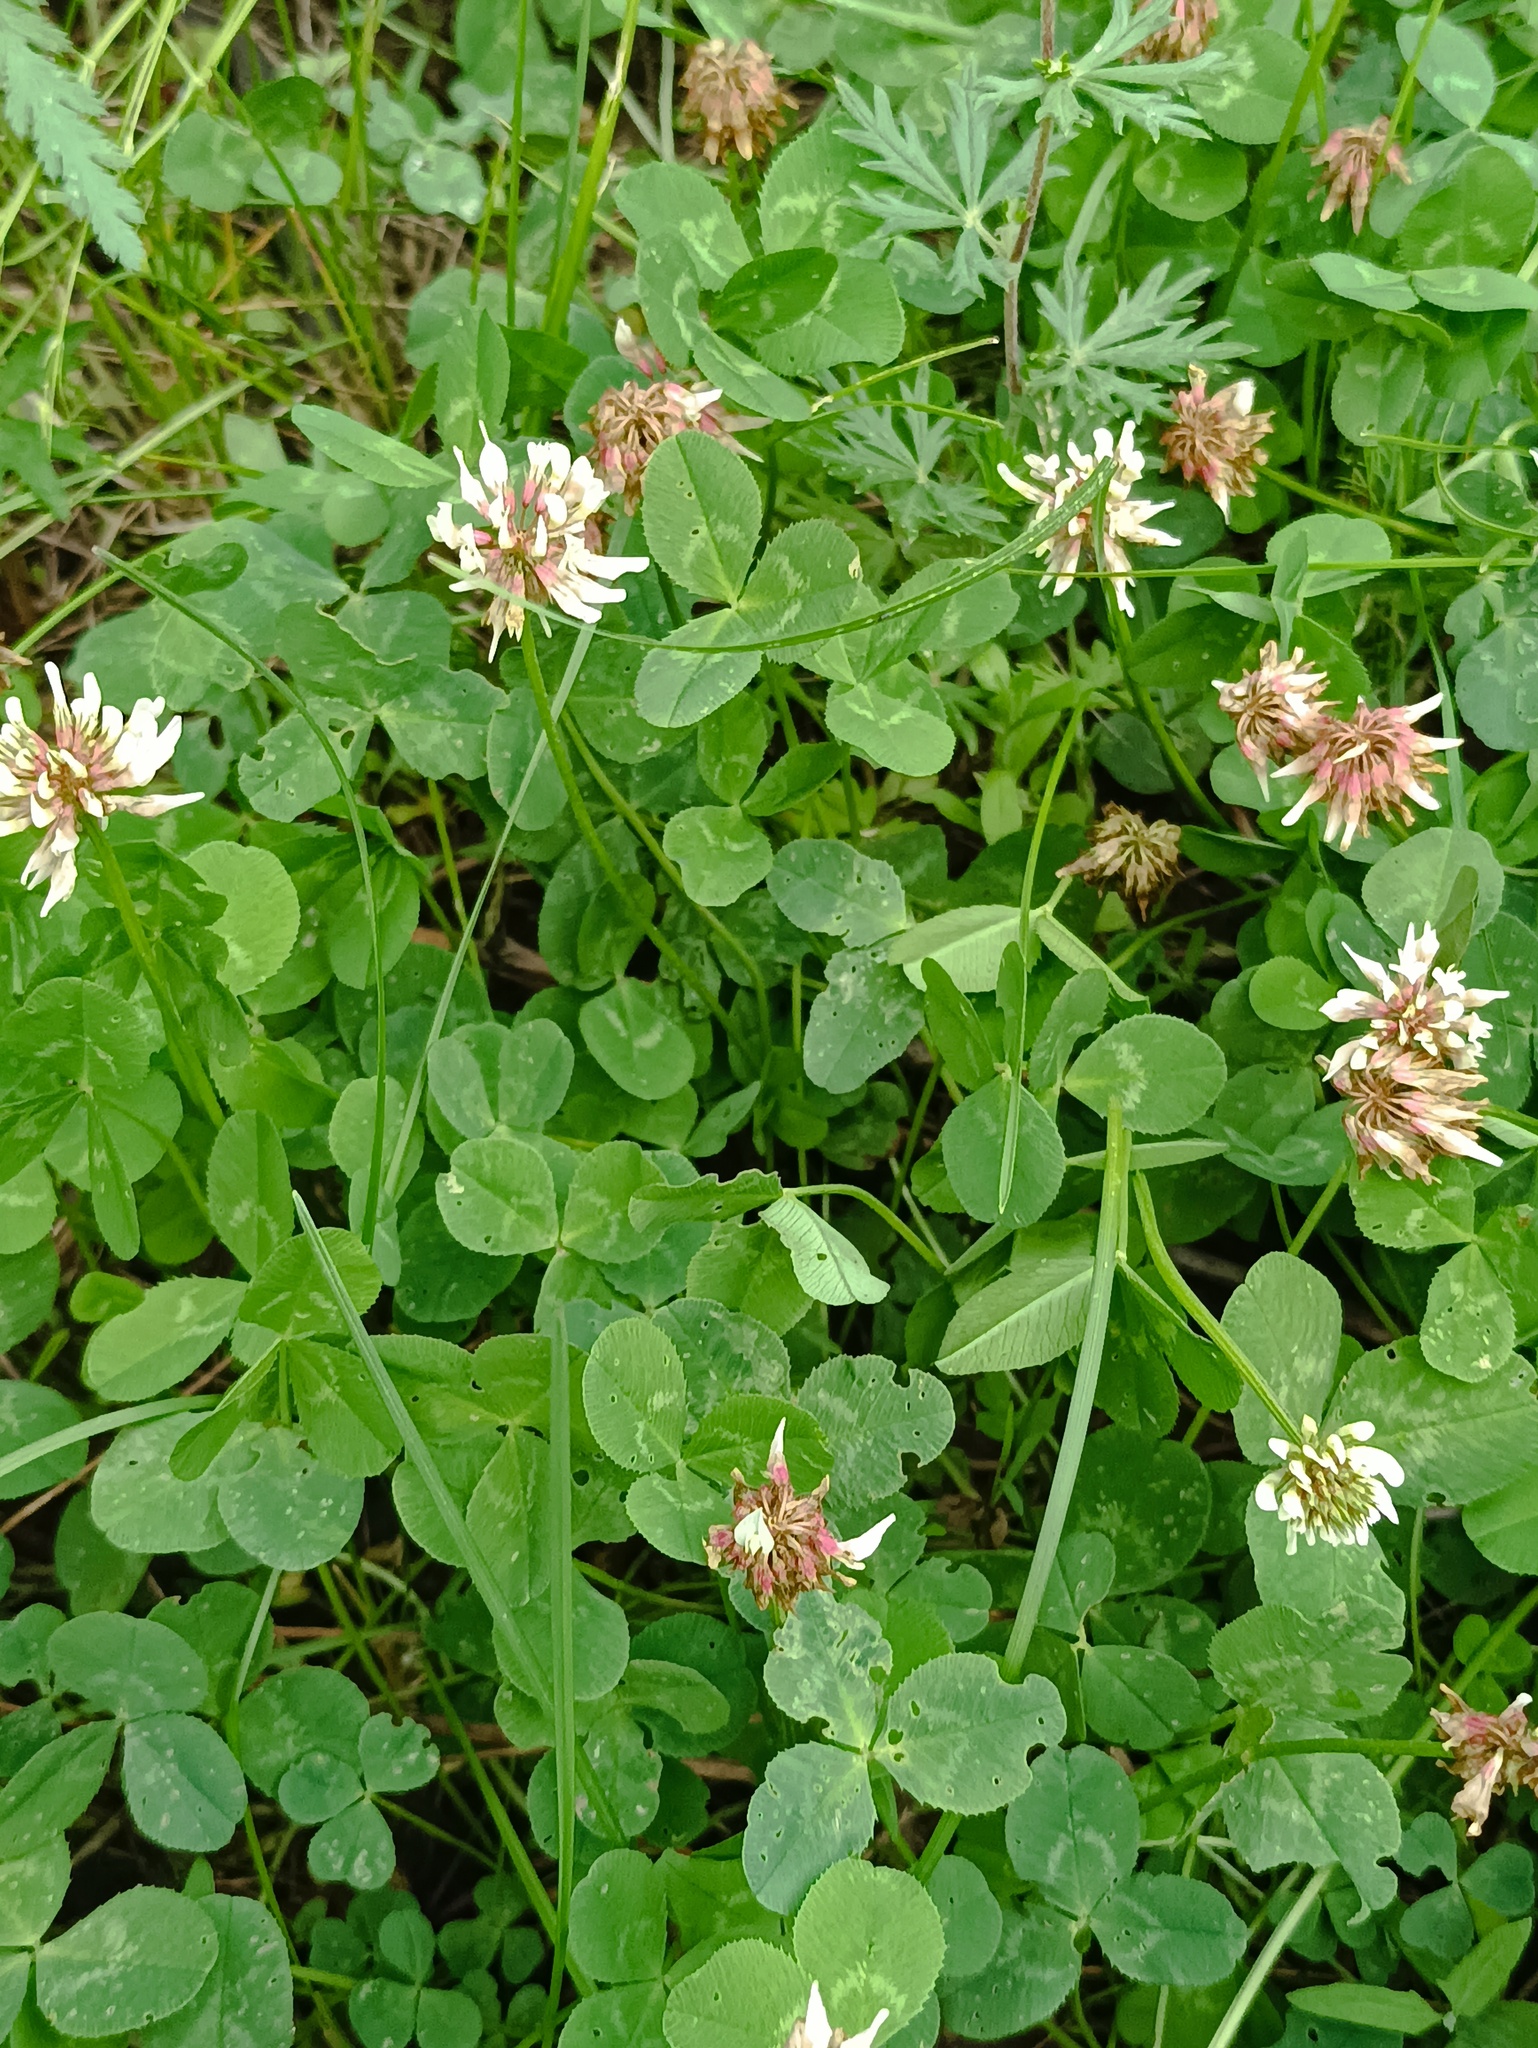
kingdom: Plantae
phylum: Tracheophyta
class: Magnoliopsida
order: Fabales
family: Fabaceae
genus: Trifolium
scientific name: Trifolium repens
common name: White clover
